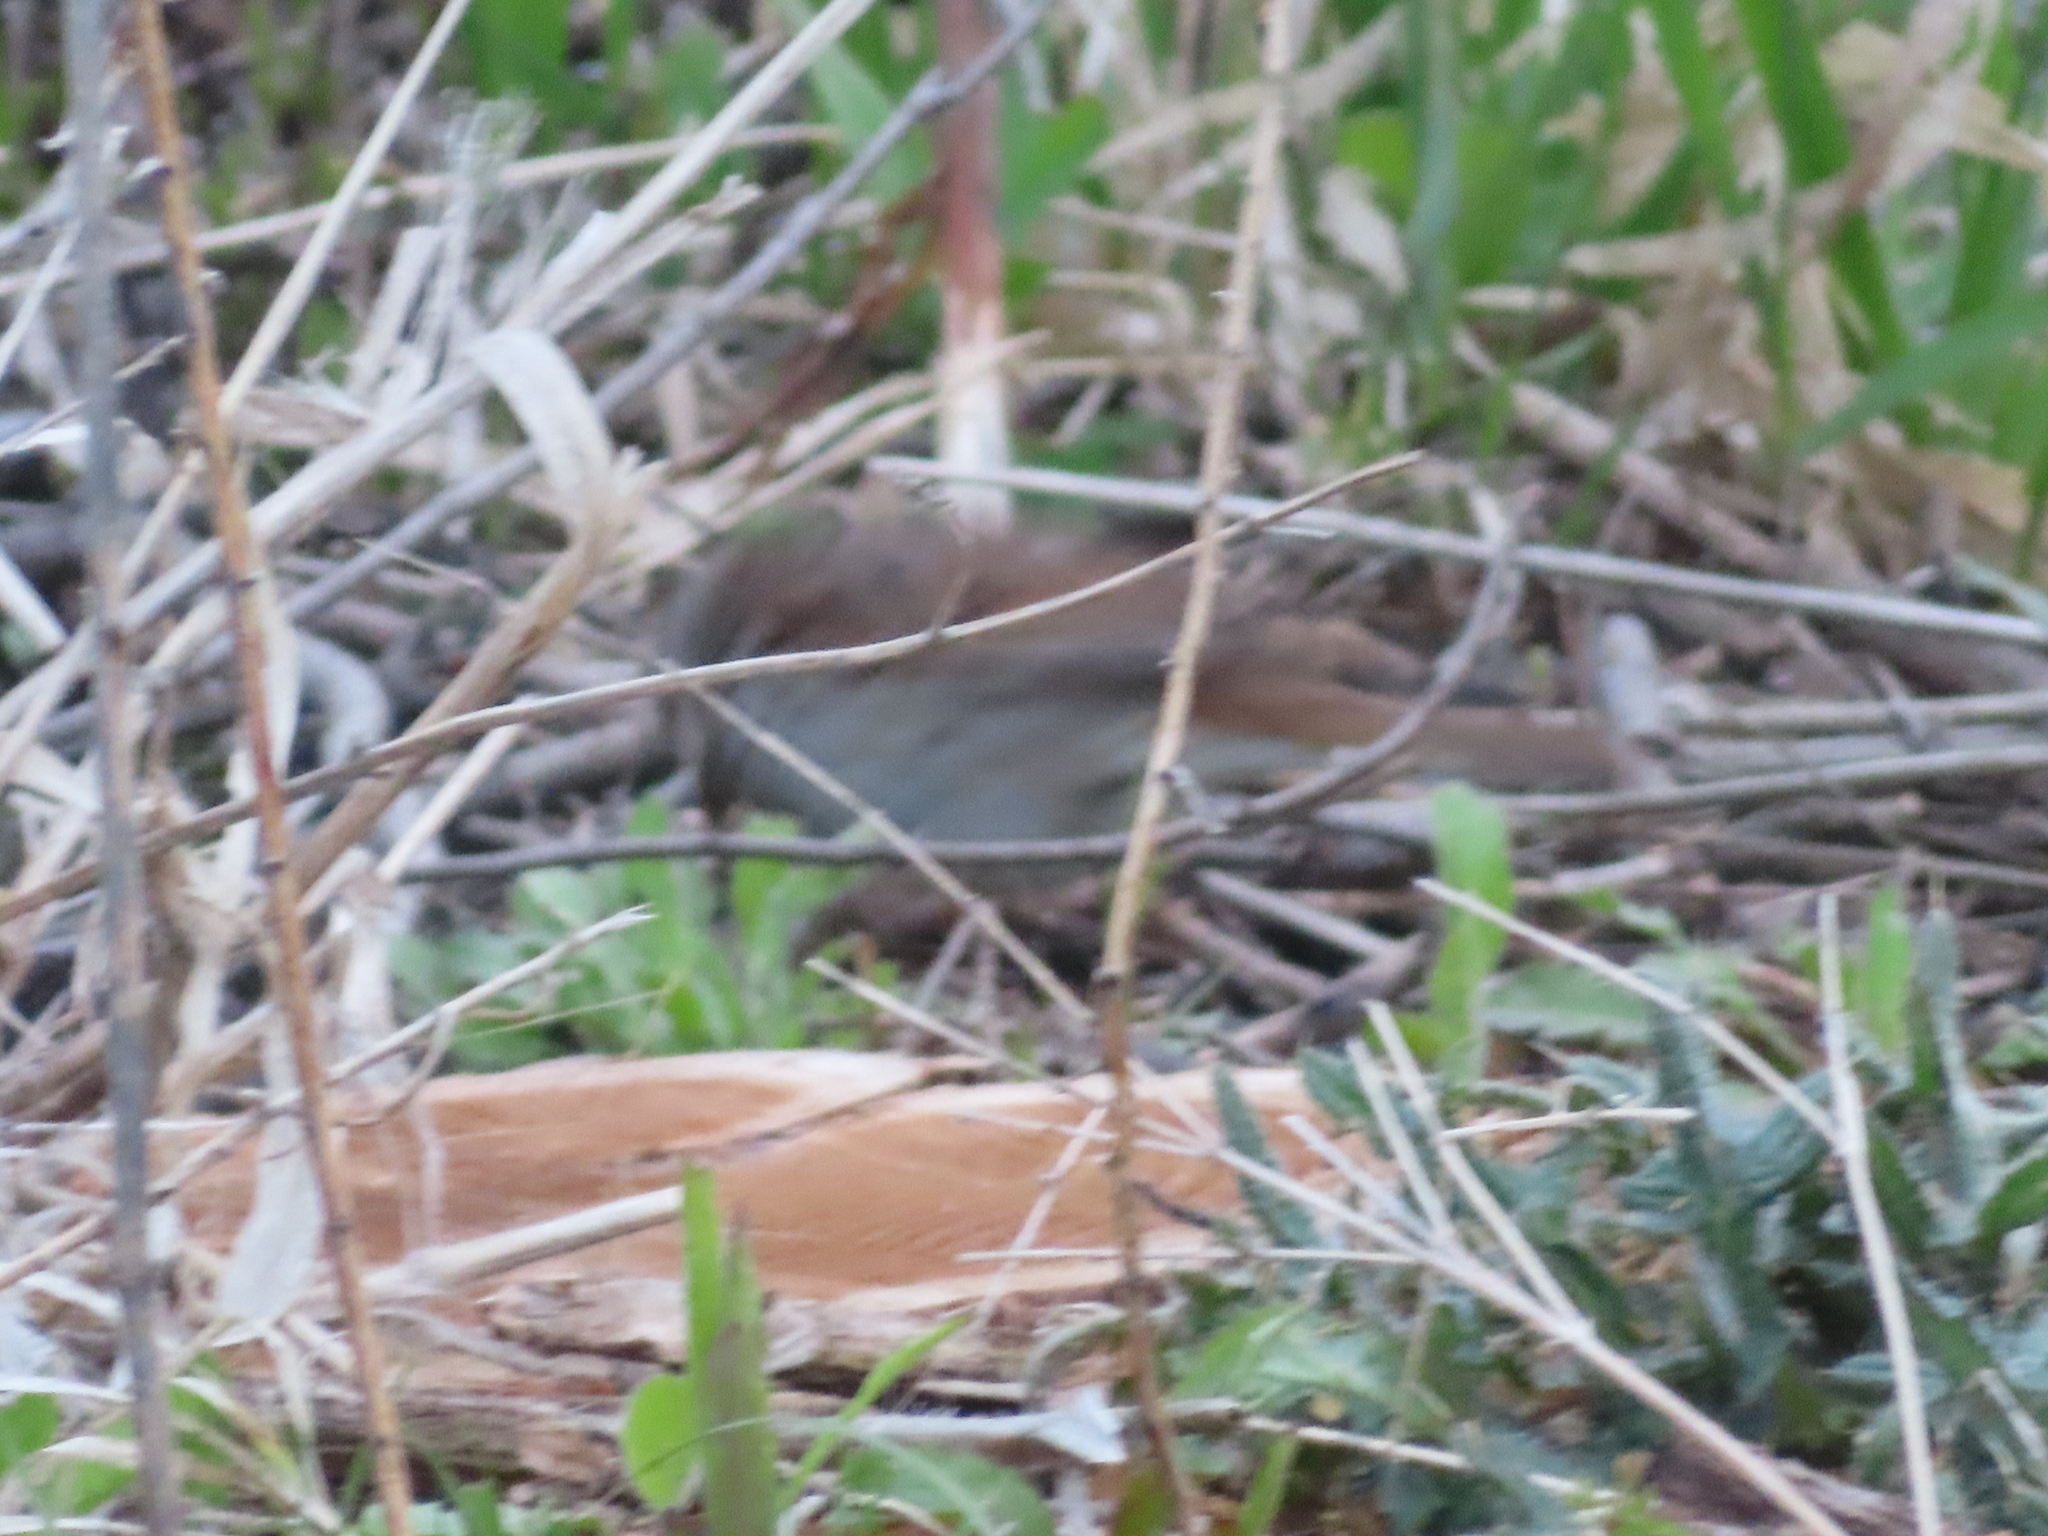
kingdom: Animalia
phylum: Chordata
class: Aves
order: Passeriformes
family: Passerellidae
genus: Melospiza
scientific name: Melospiza melodia
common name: Song sparrow
